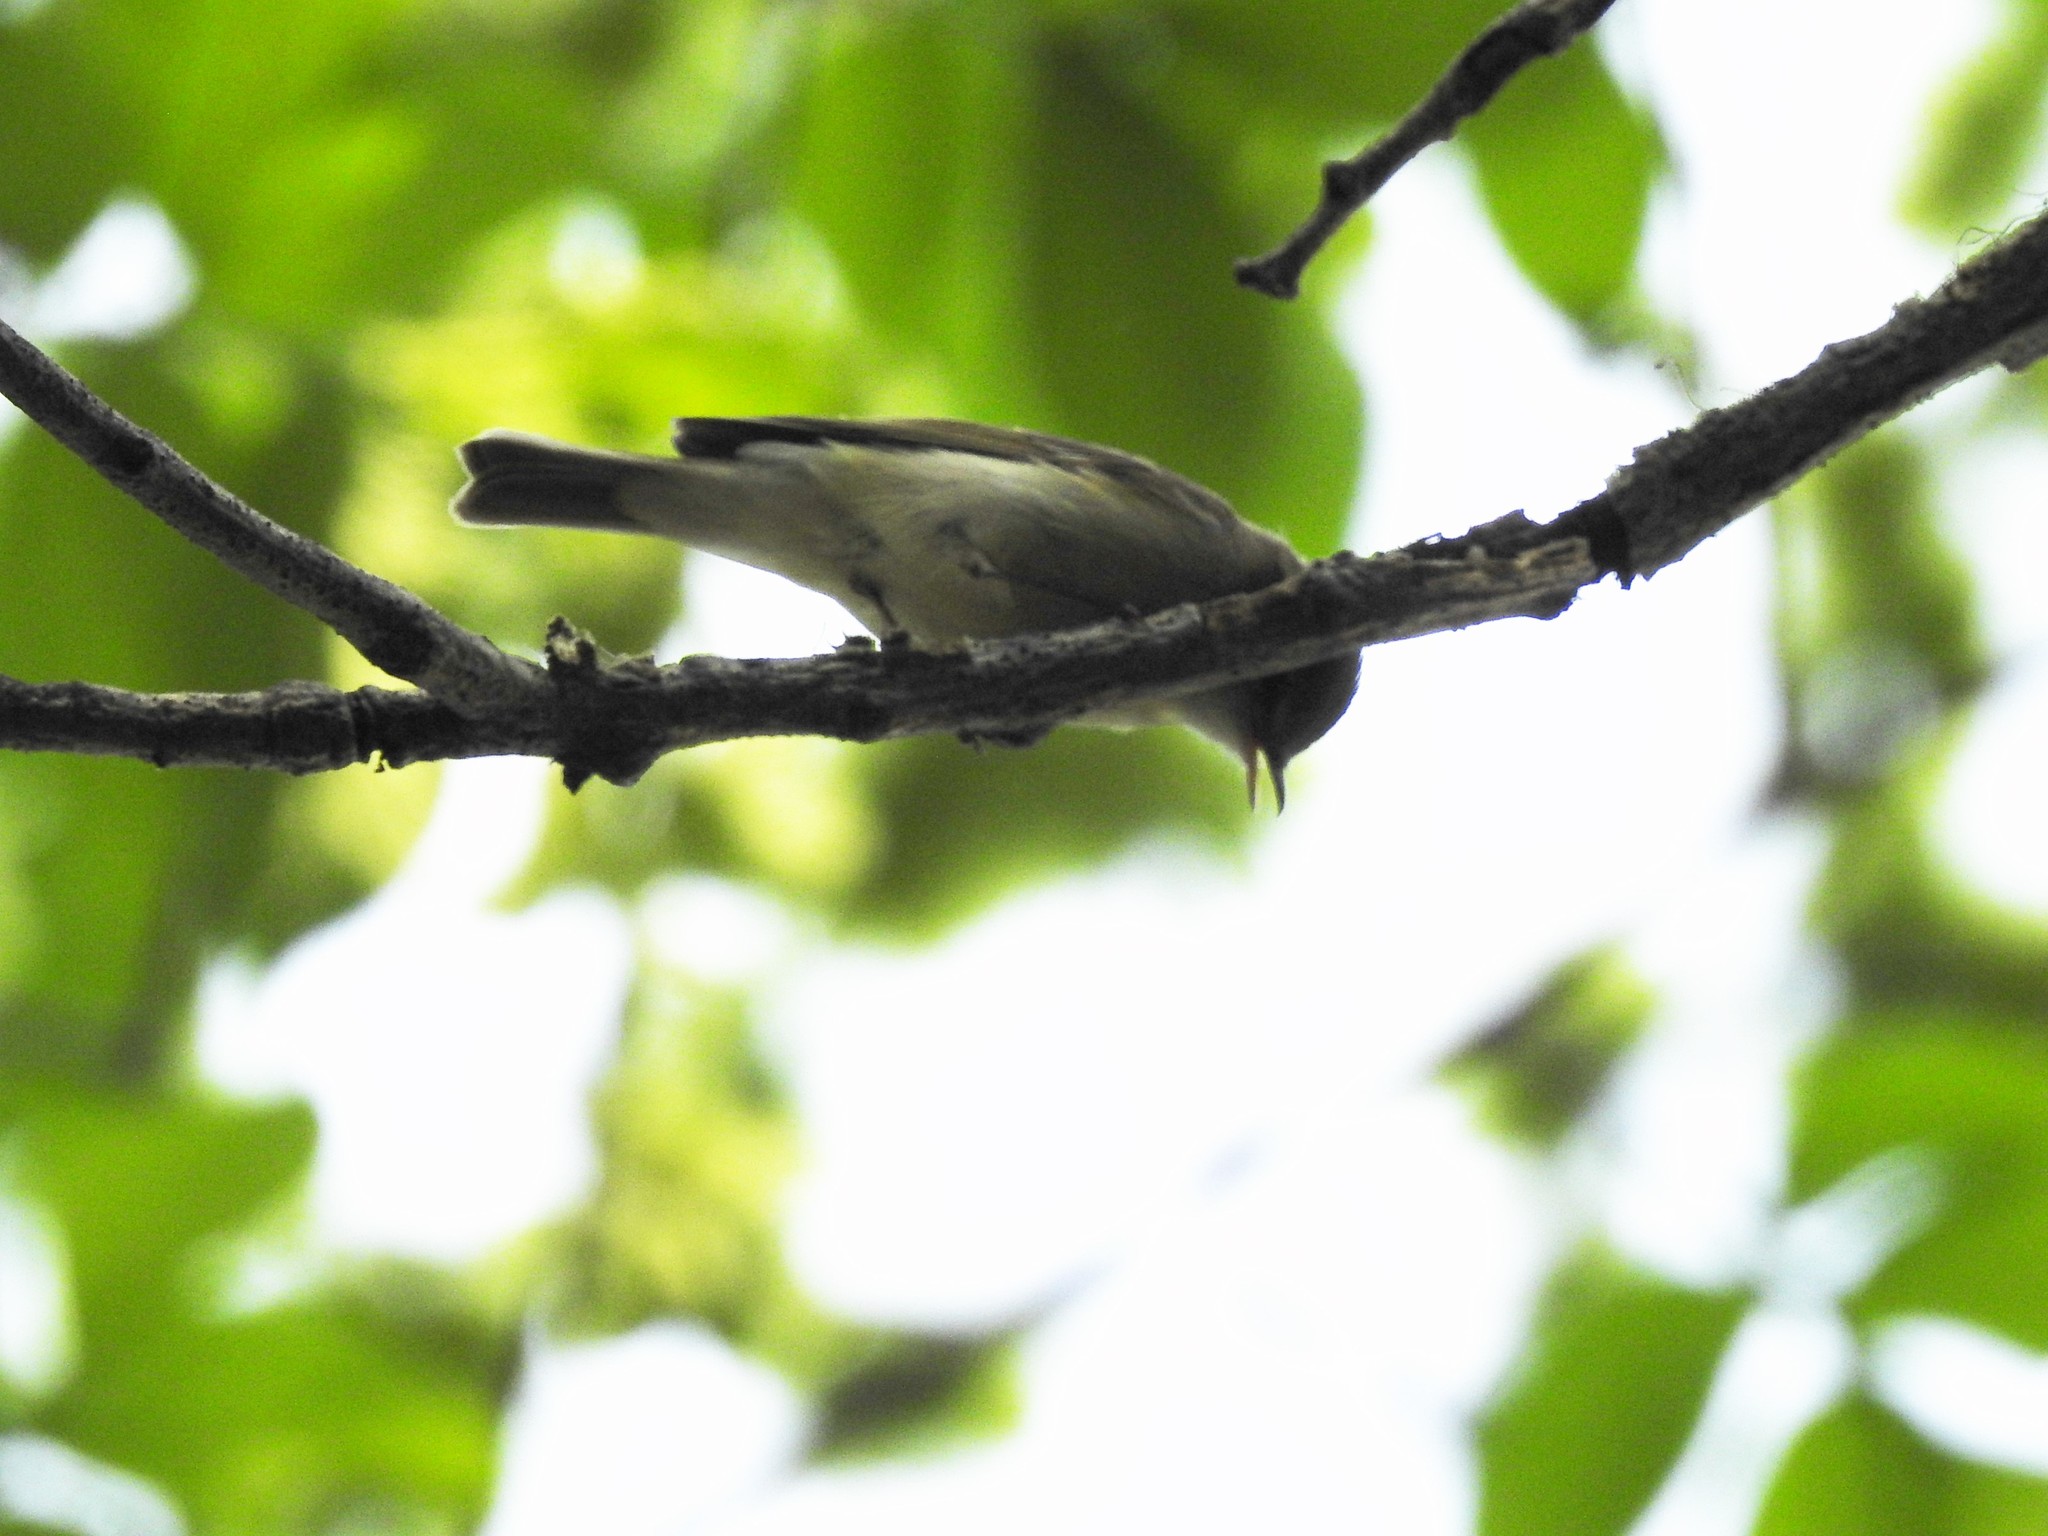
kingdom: Animalia
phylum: Chordata
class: Aves
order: Passeriformes
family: Phylloscopidae
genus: Phylloscopus
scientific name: Phylloscopus trochiloides
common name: Greenish warbler
